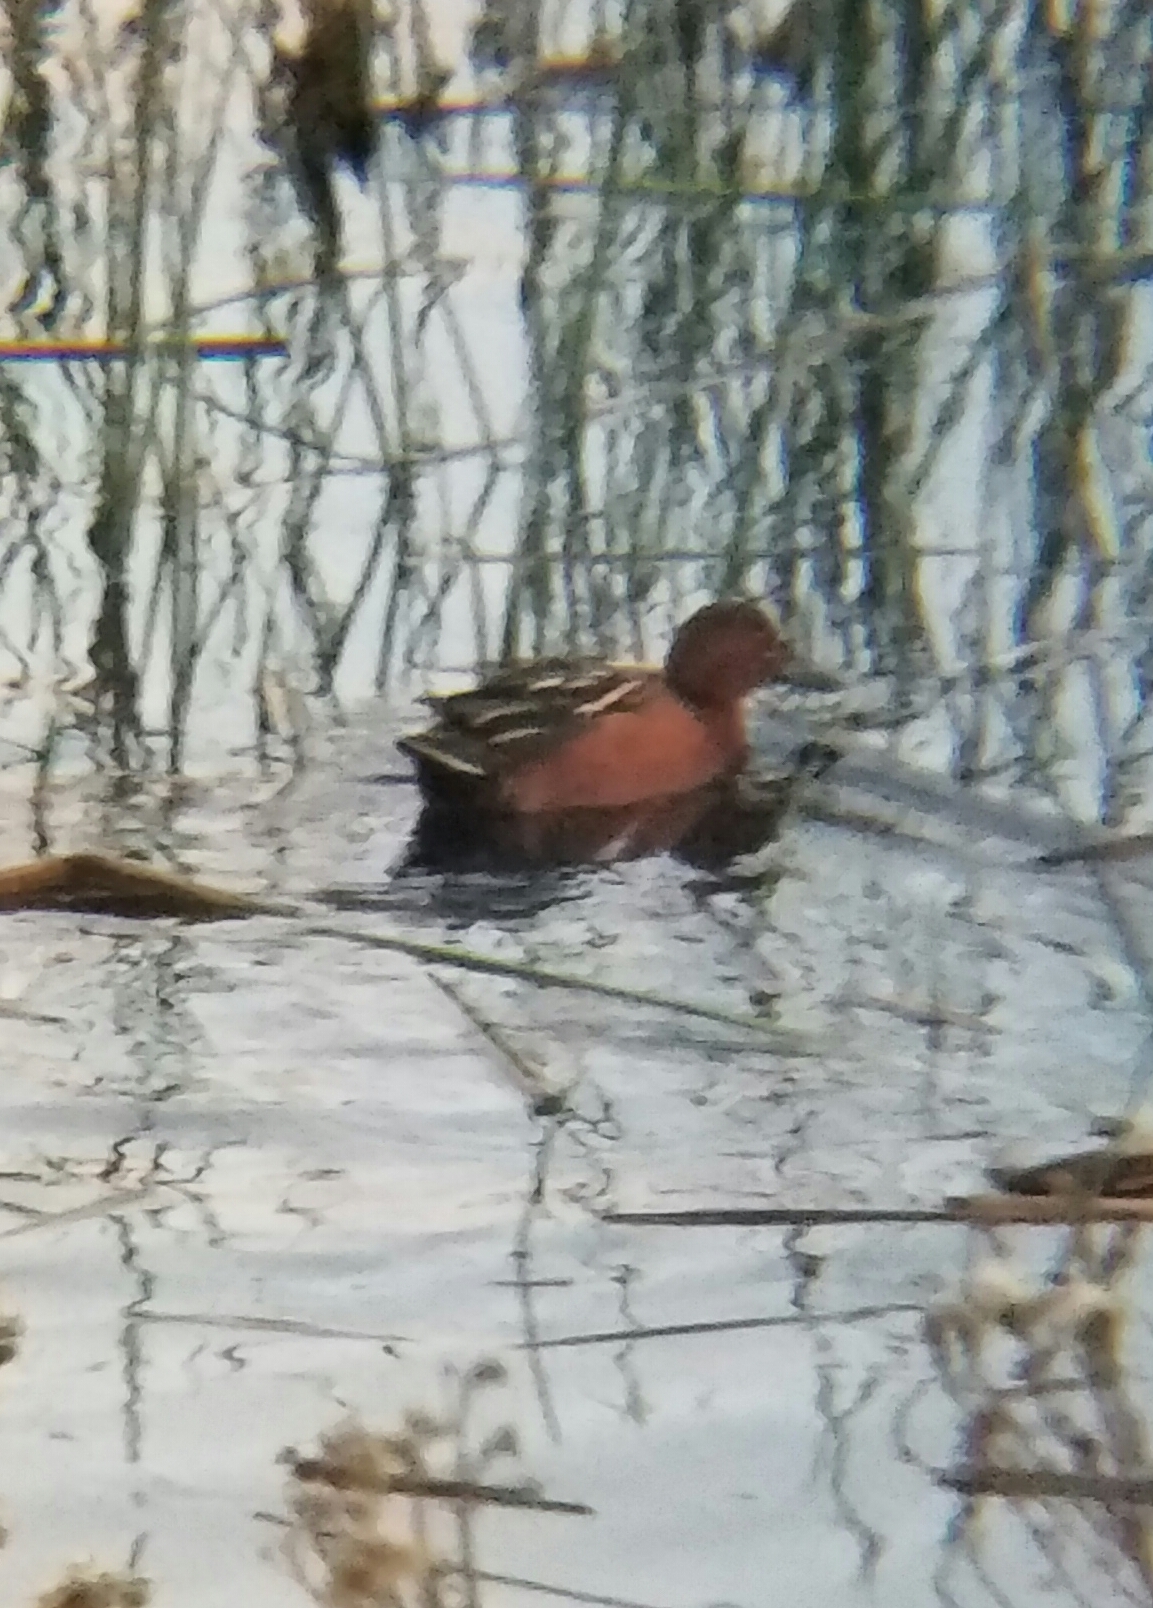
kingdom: Animalia
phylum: Chordata
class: Aves
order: Anseriformes
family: Anatidae
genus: Spatula
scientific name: Spatula cyanoptera
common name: Cinnamon teal
